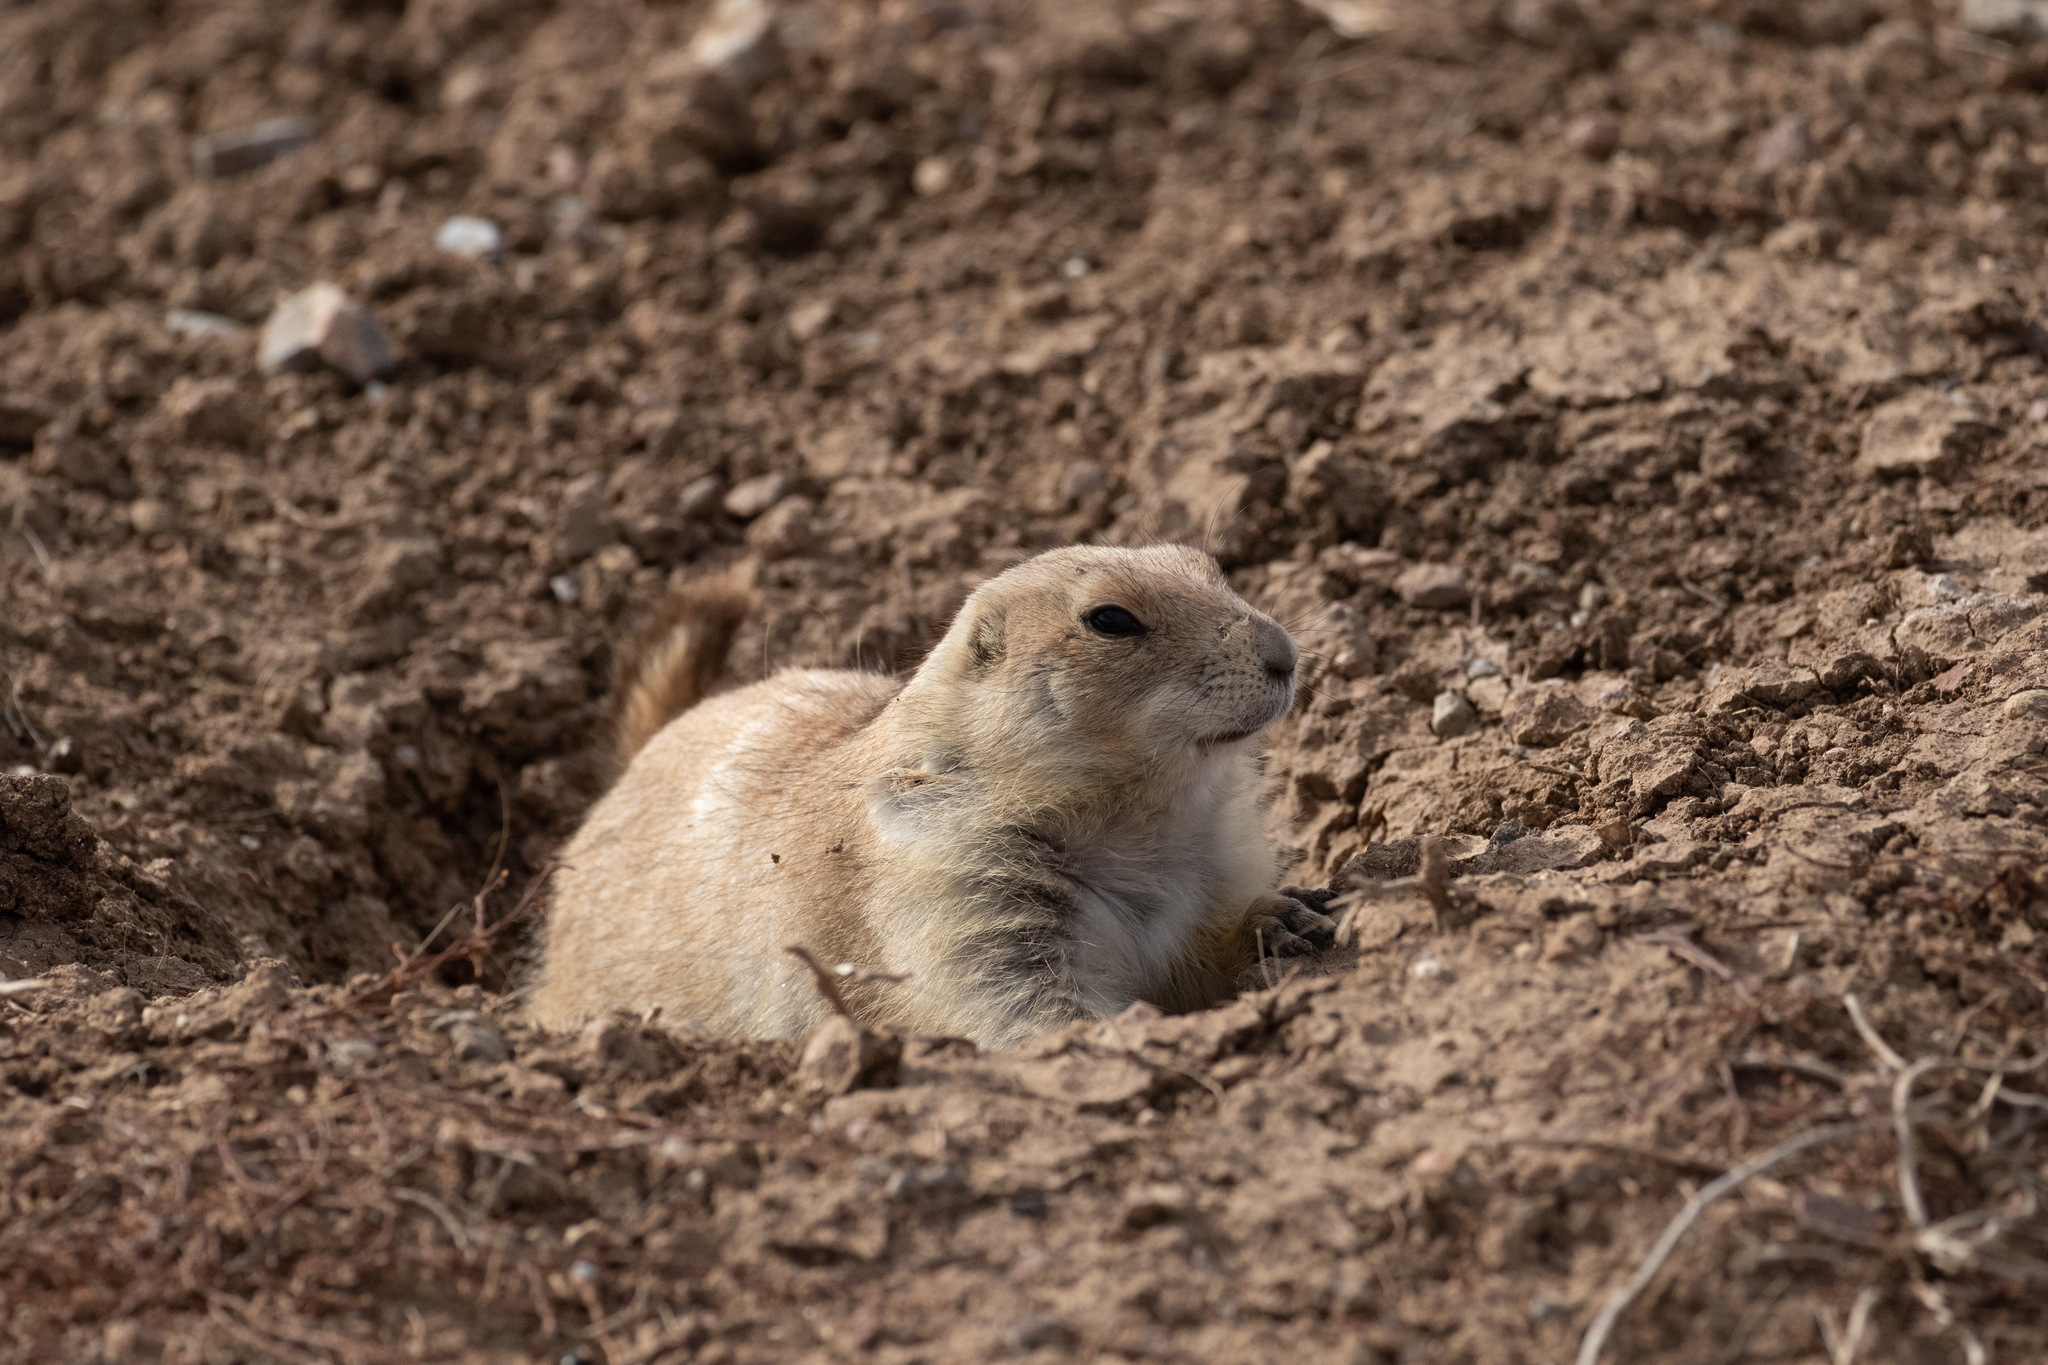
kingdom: Animalia
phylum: Chordata
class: Mammalia
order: Rodentia
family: Sciuridae
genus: Cynomys
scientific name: Cynomys ludovicianus
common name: Black-tailed prairie dog
